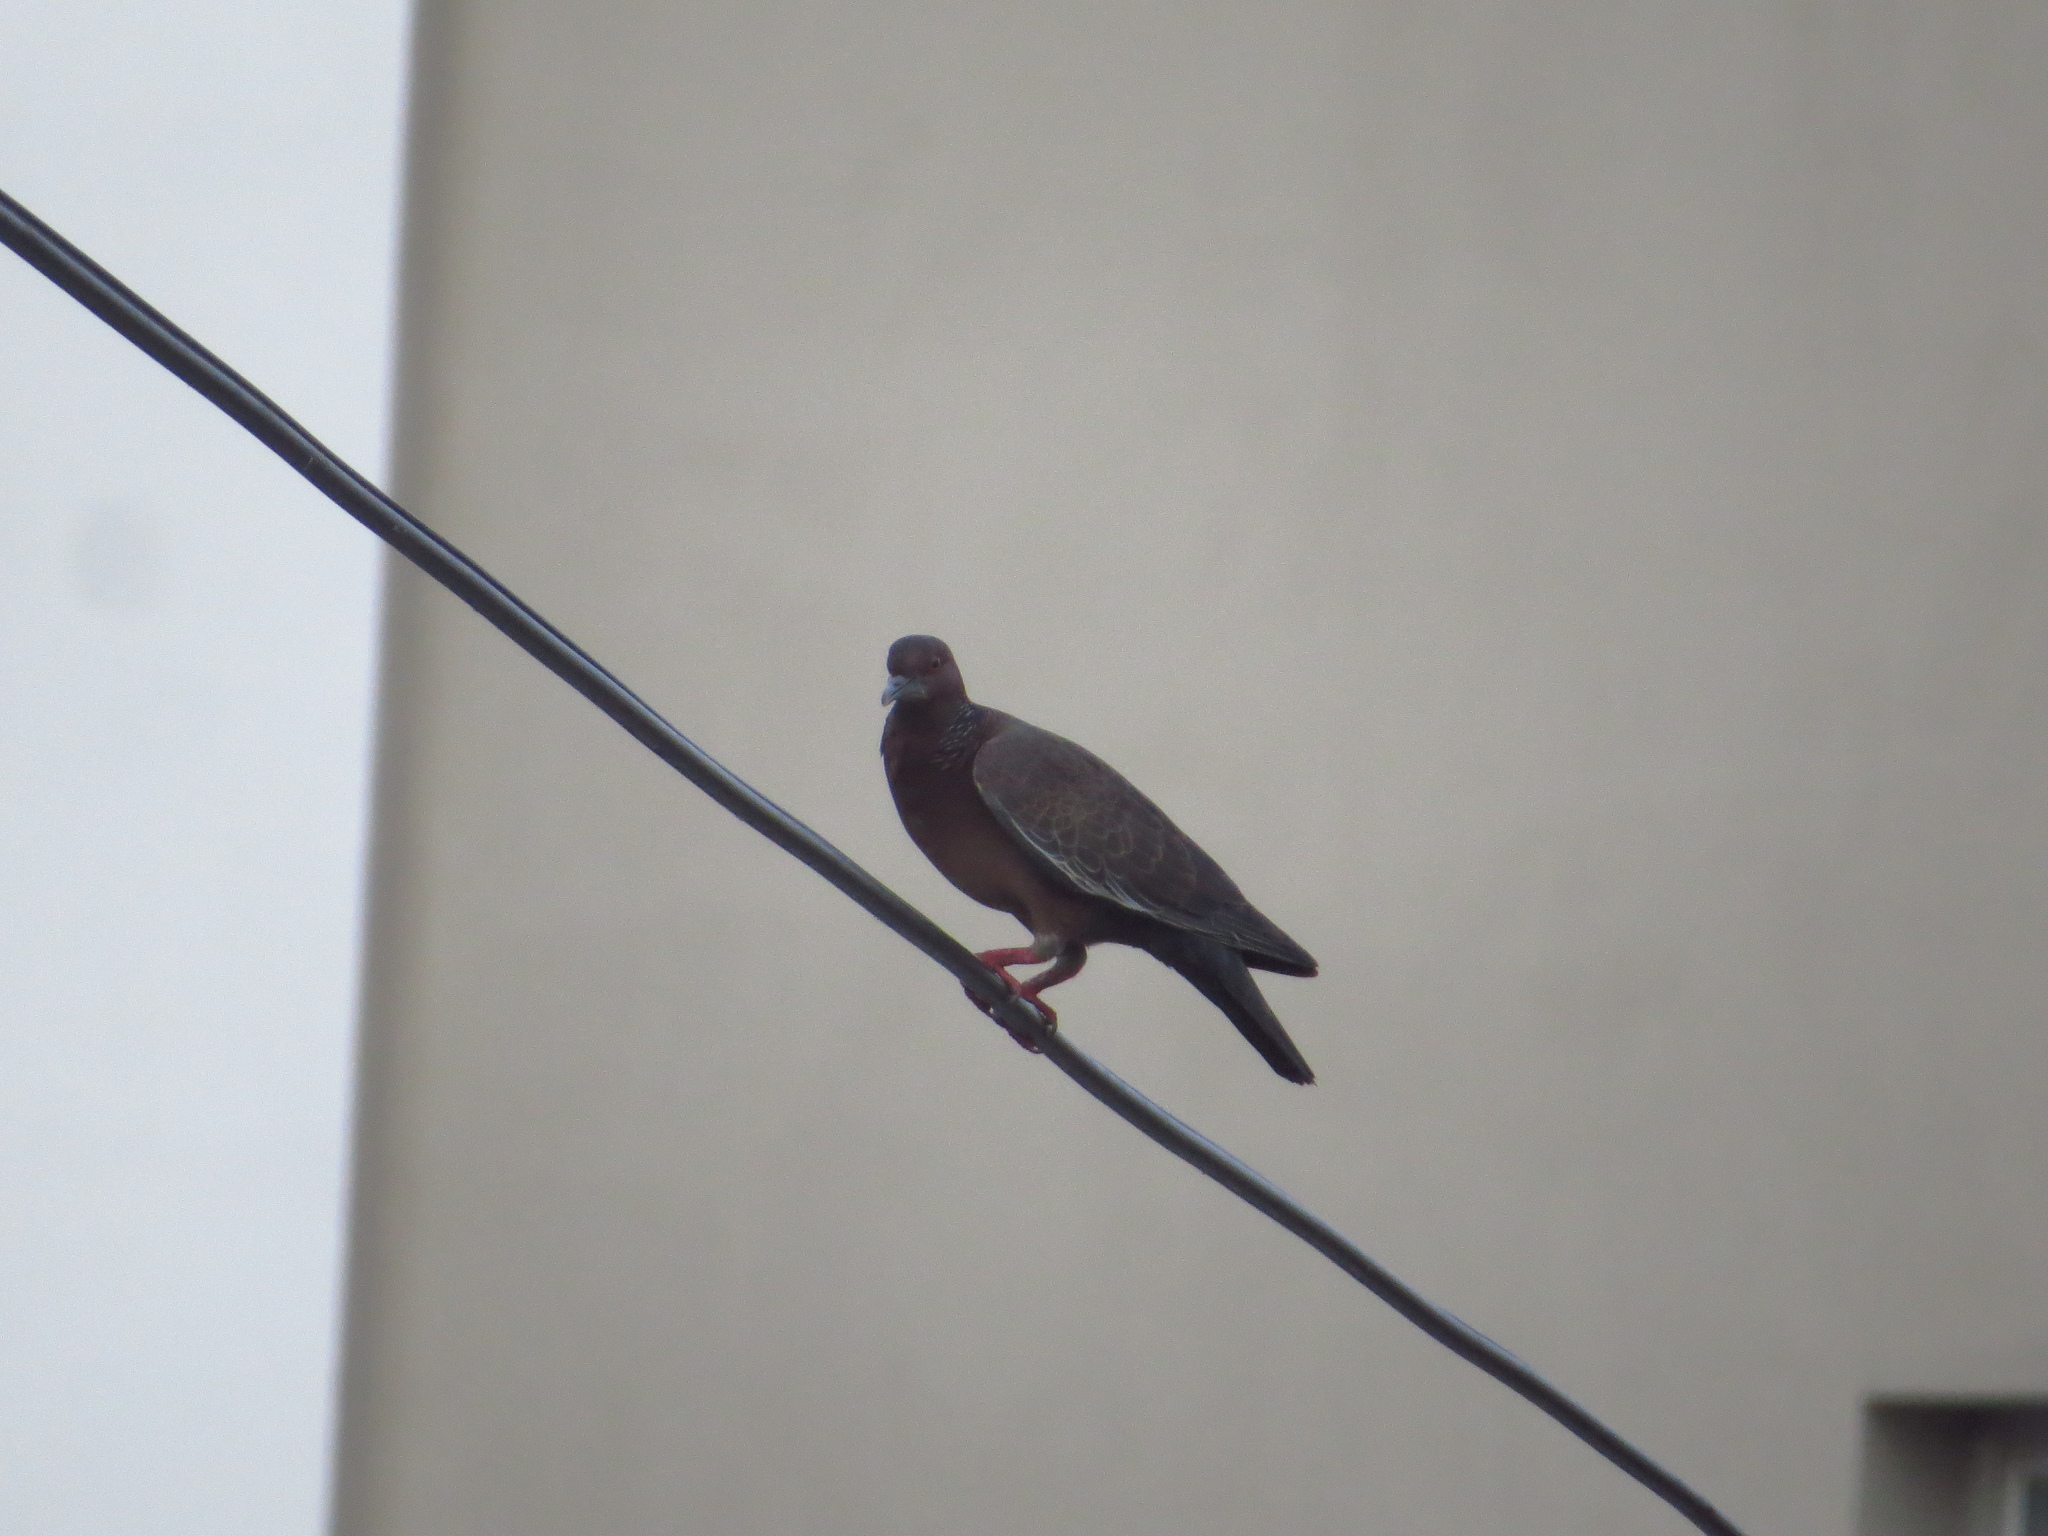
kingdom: Animalia
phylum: Chordata
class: Aves
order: Columbiformes
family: Columbidae
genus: Patagioenas
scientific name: Patagioenas picazuro
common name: Picazuro pigeon
